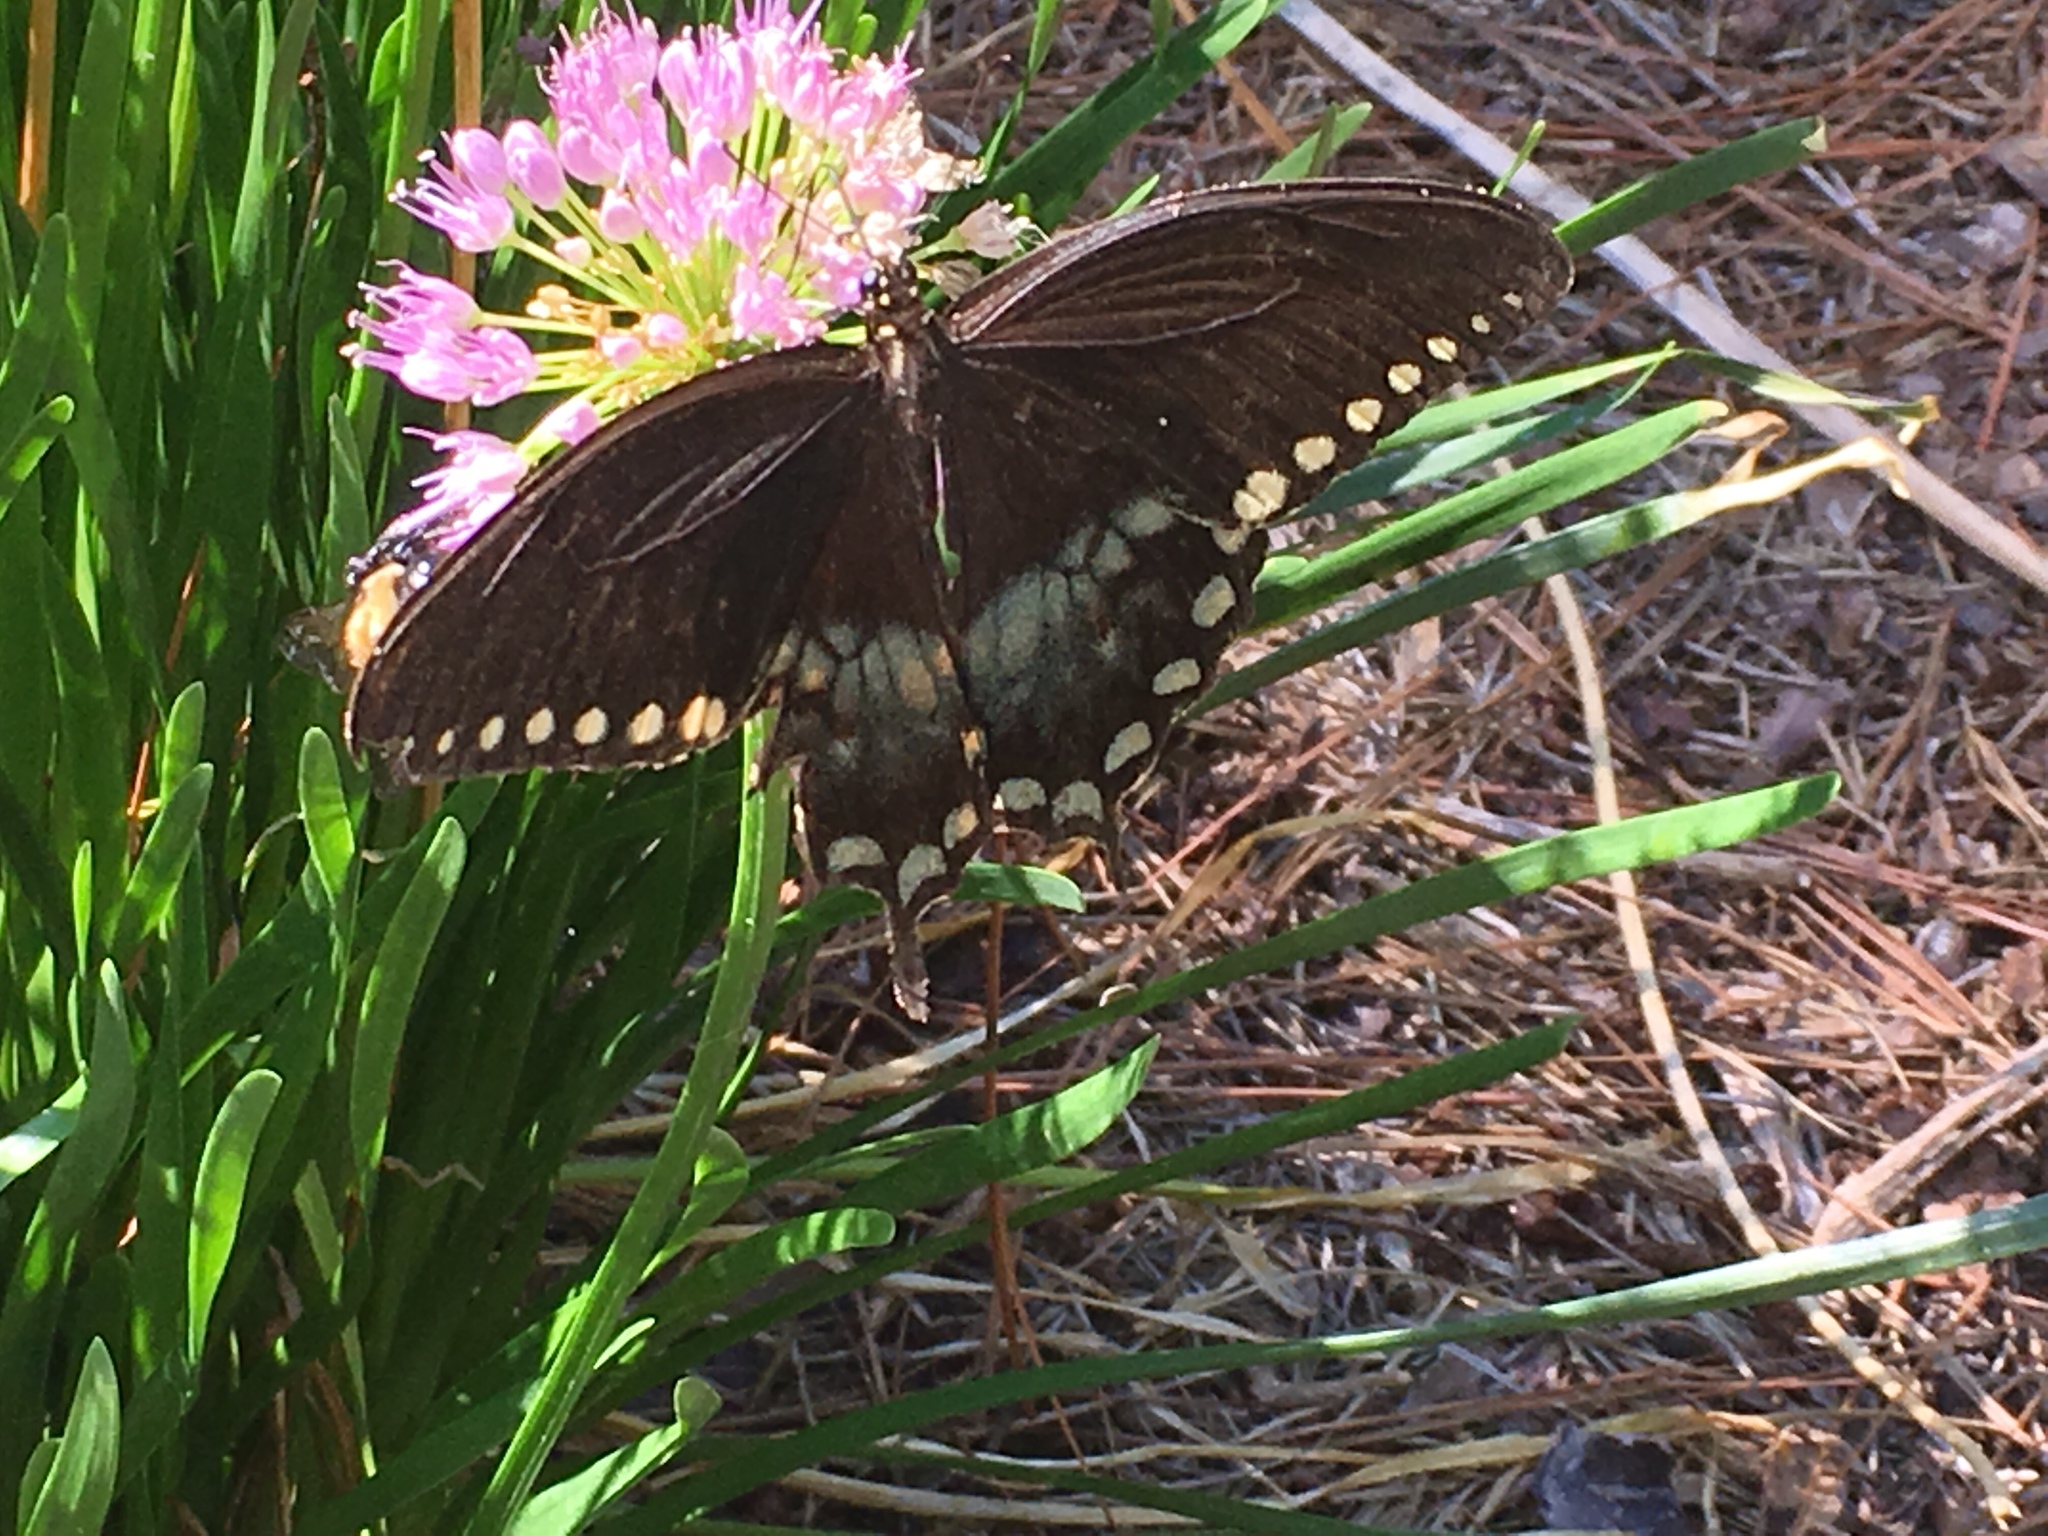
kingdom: Animalia
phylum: Arthropoda
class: Insecta
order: Lepidoptera
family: Papilionidae
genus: Papilio
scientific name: Papilio troilus
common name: Spicebush swallowtail
